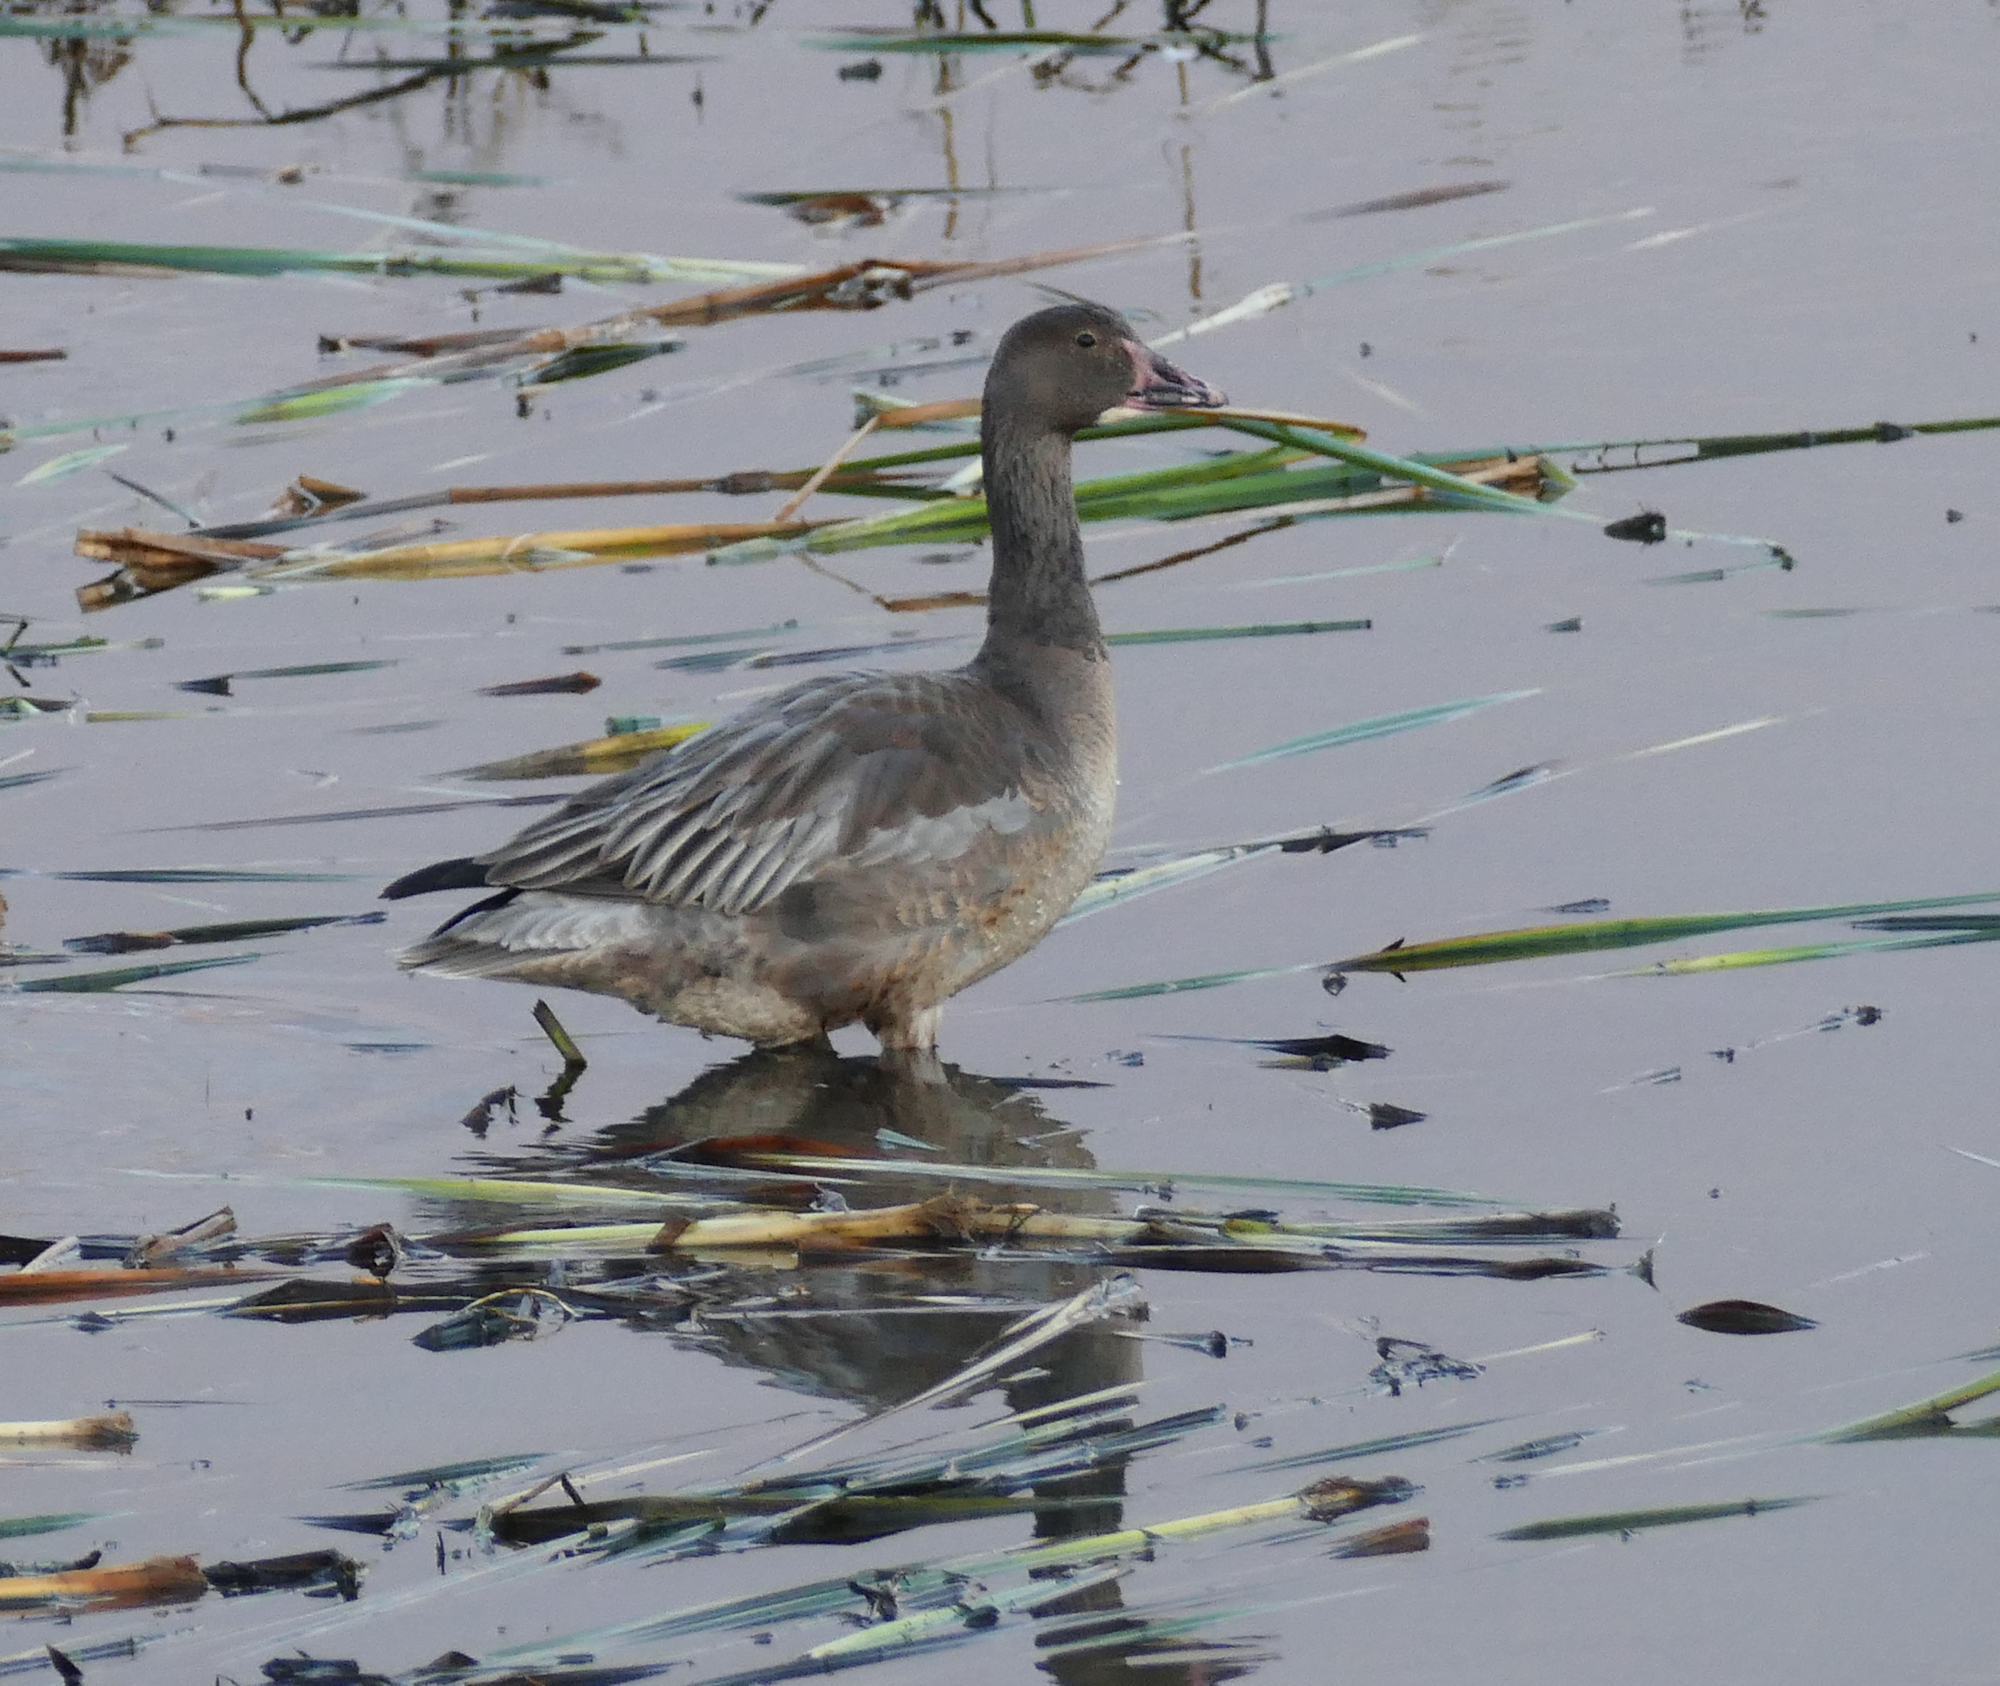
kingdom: Animalia
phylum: Chordata
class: Aves
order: Anseriformes
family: Anatidae
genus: Anser
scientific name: Anser caerulescens
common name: Snow goose
